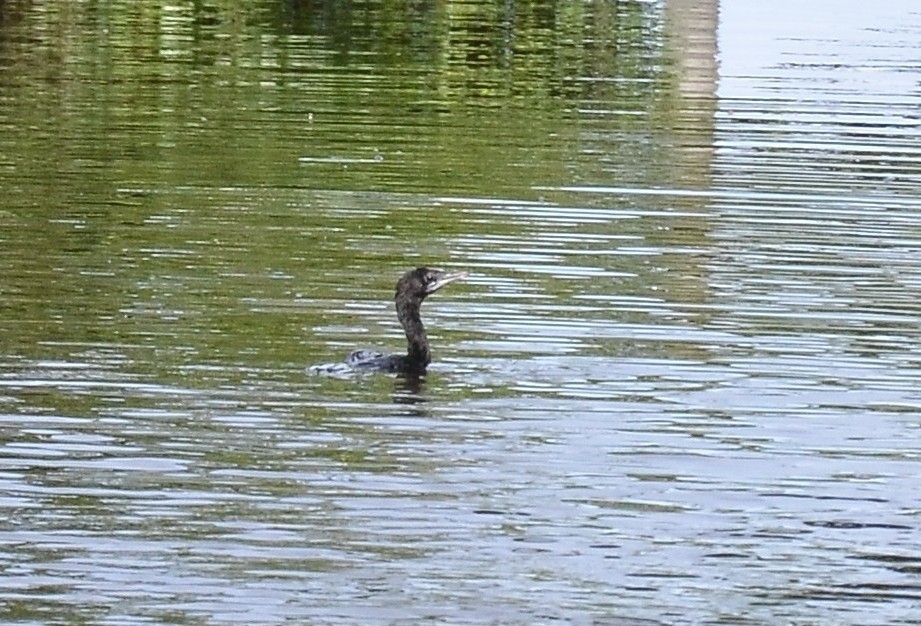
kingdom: Animalia
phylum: Chordata
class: Aves
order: Suliformes
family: Phalacrocoracidae
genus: Microcarbo
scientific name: Microcarbo niger
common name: Little cormorant
